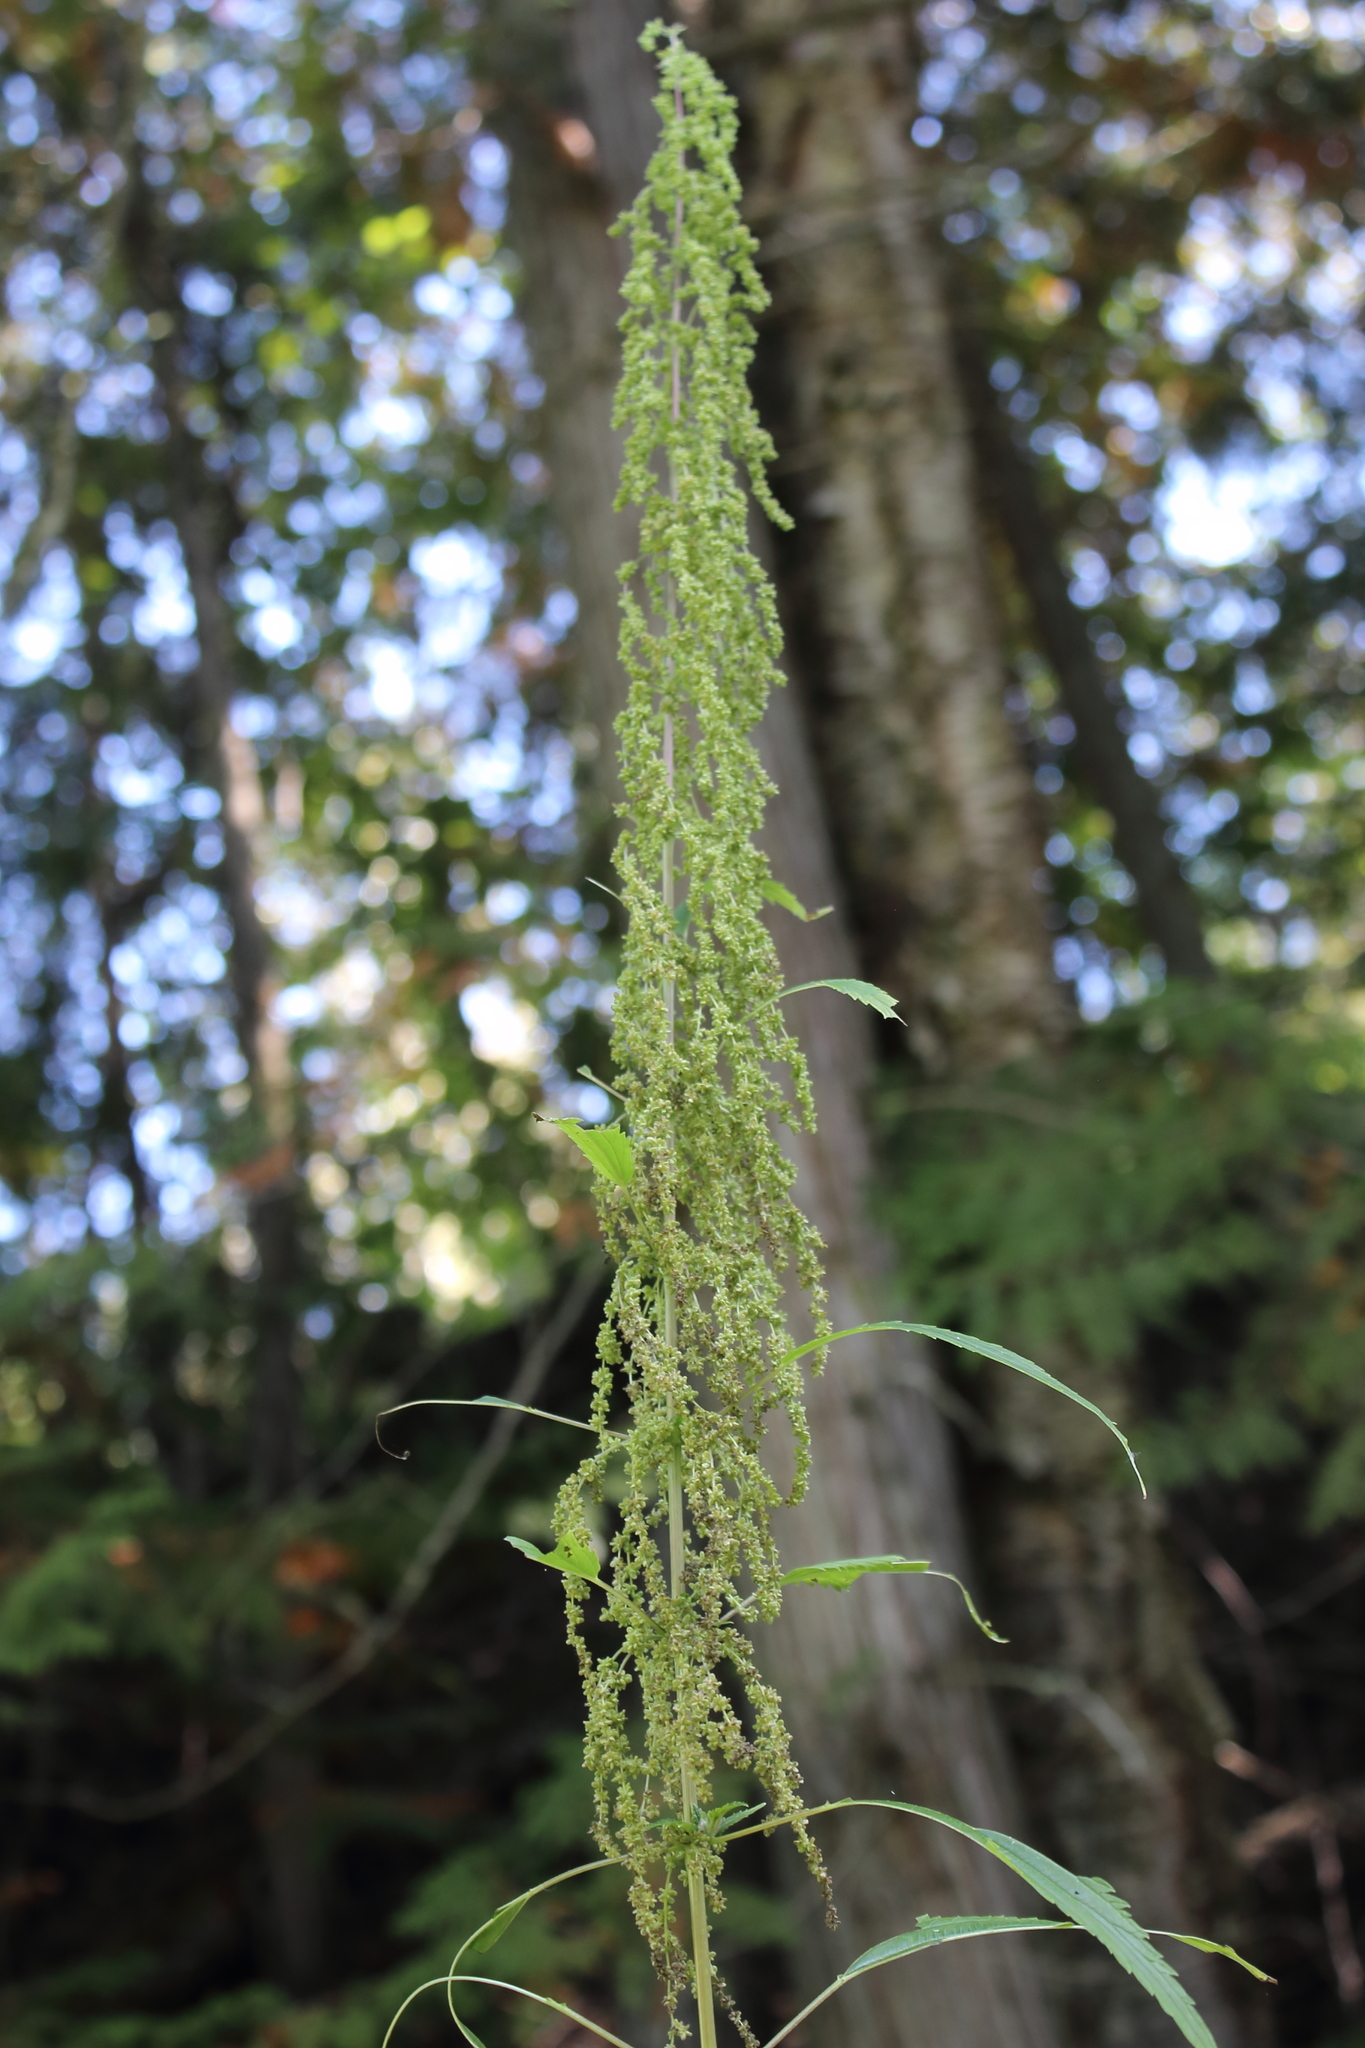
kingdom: Plantae
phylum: Tracheophyta
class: Magnoliopsida
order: Rosales
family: Urticaceae
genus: Urtica
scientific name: Urtica dioica
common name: Common nettle
